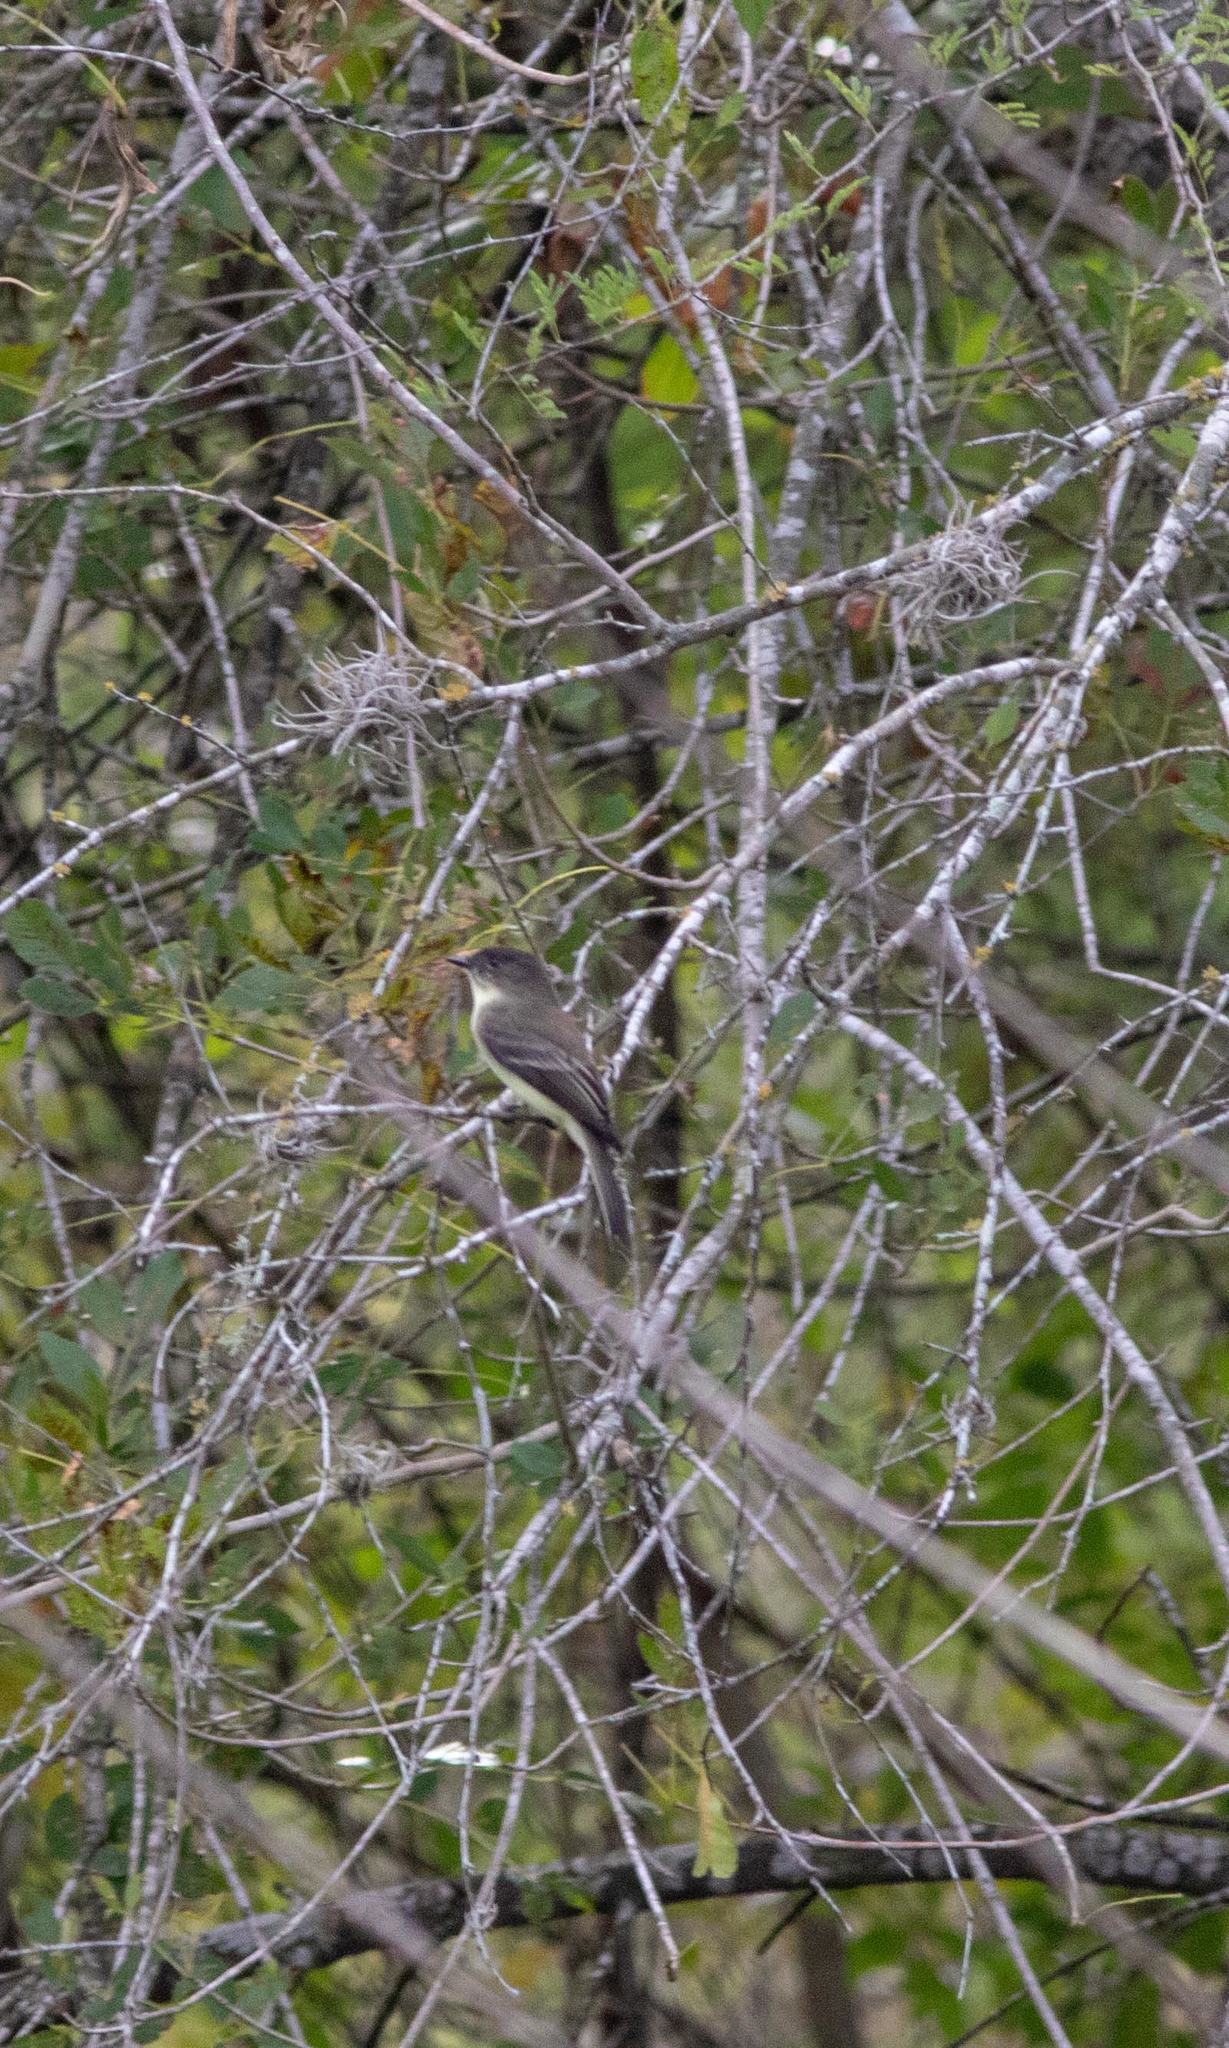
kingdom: Animalia
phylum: Chordata
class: Aves
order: Passeriformes
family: Tyrannidae
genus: Sayornis
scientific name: Sayornis phoebe
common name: Eastern phoebe
